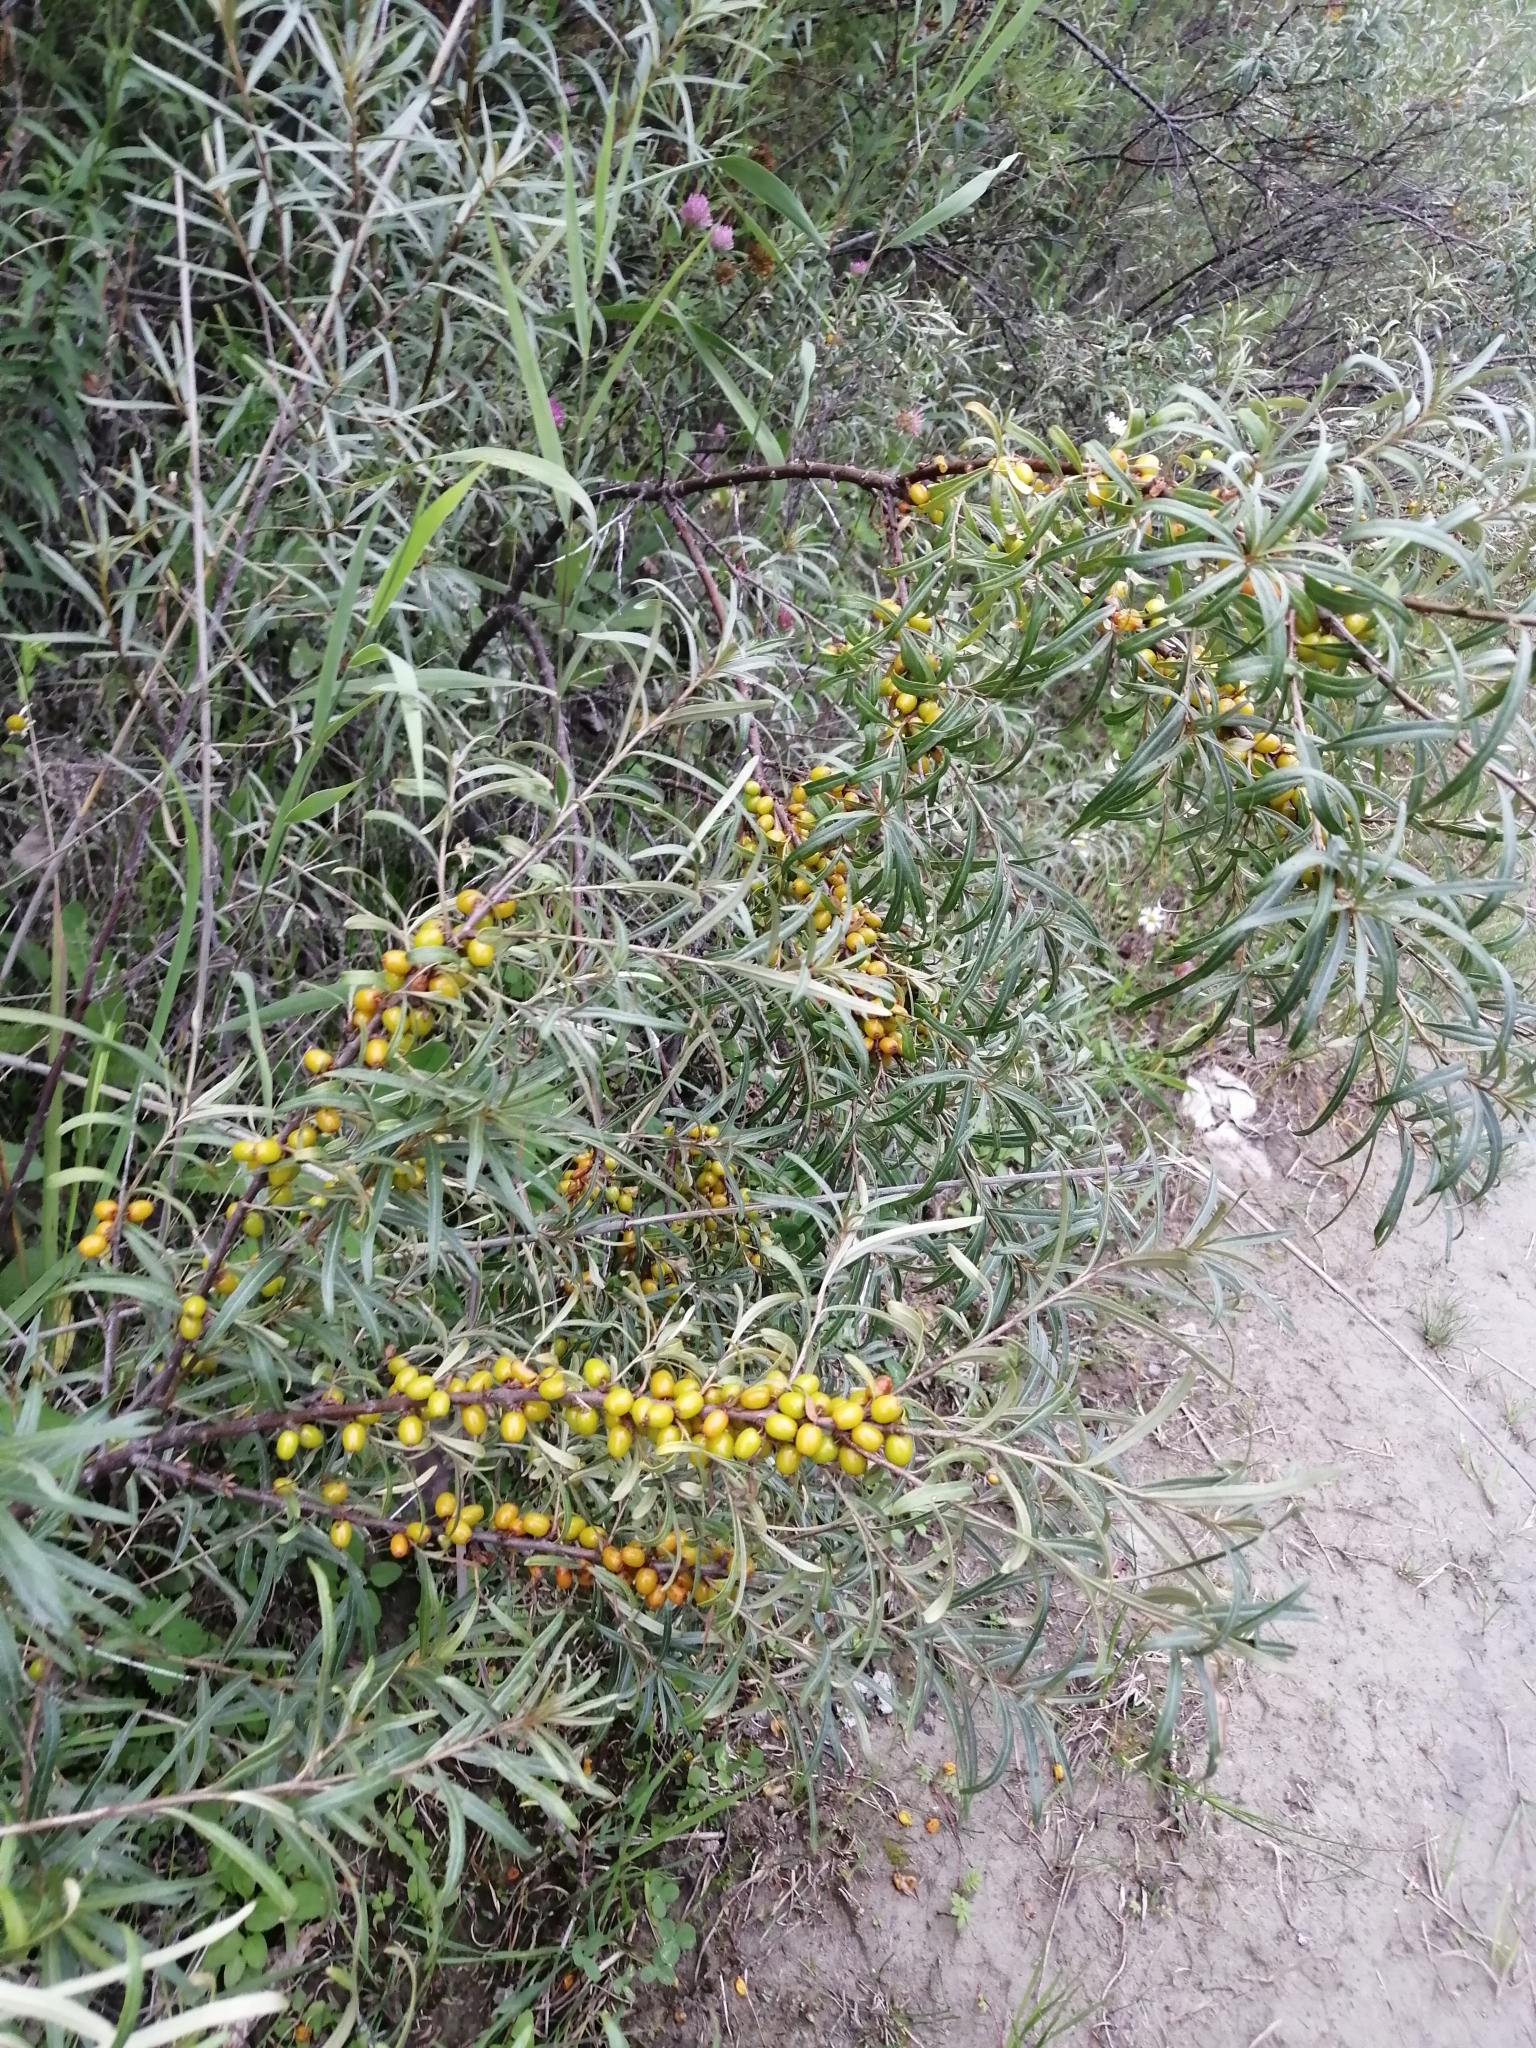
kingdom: Plantae
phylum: Tracheophyta
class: Magnoliopsida
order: Rosales
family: Elaeagnaceae
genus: Hippophae
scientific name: Hippophae rhamnoides
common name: Sea-buckthorn
